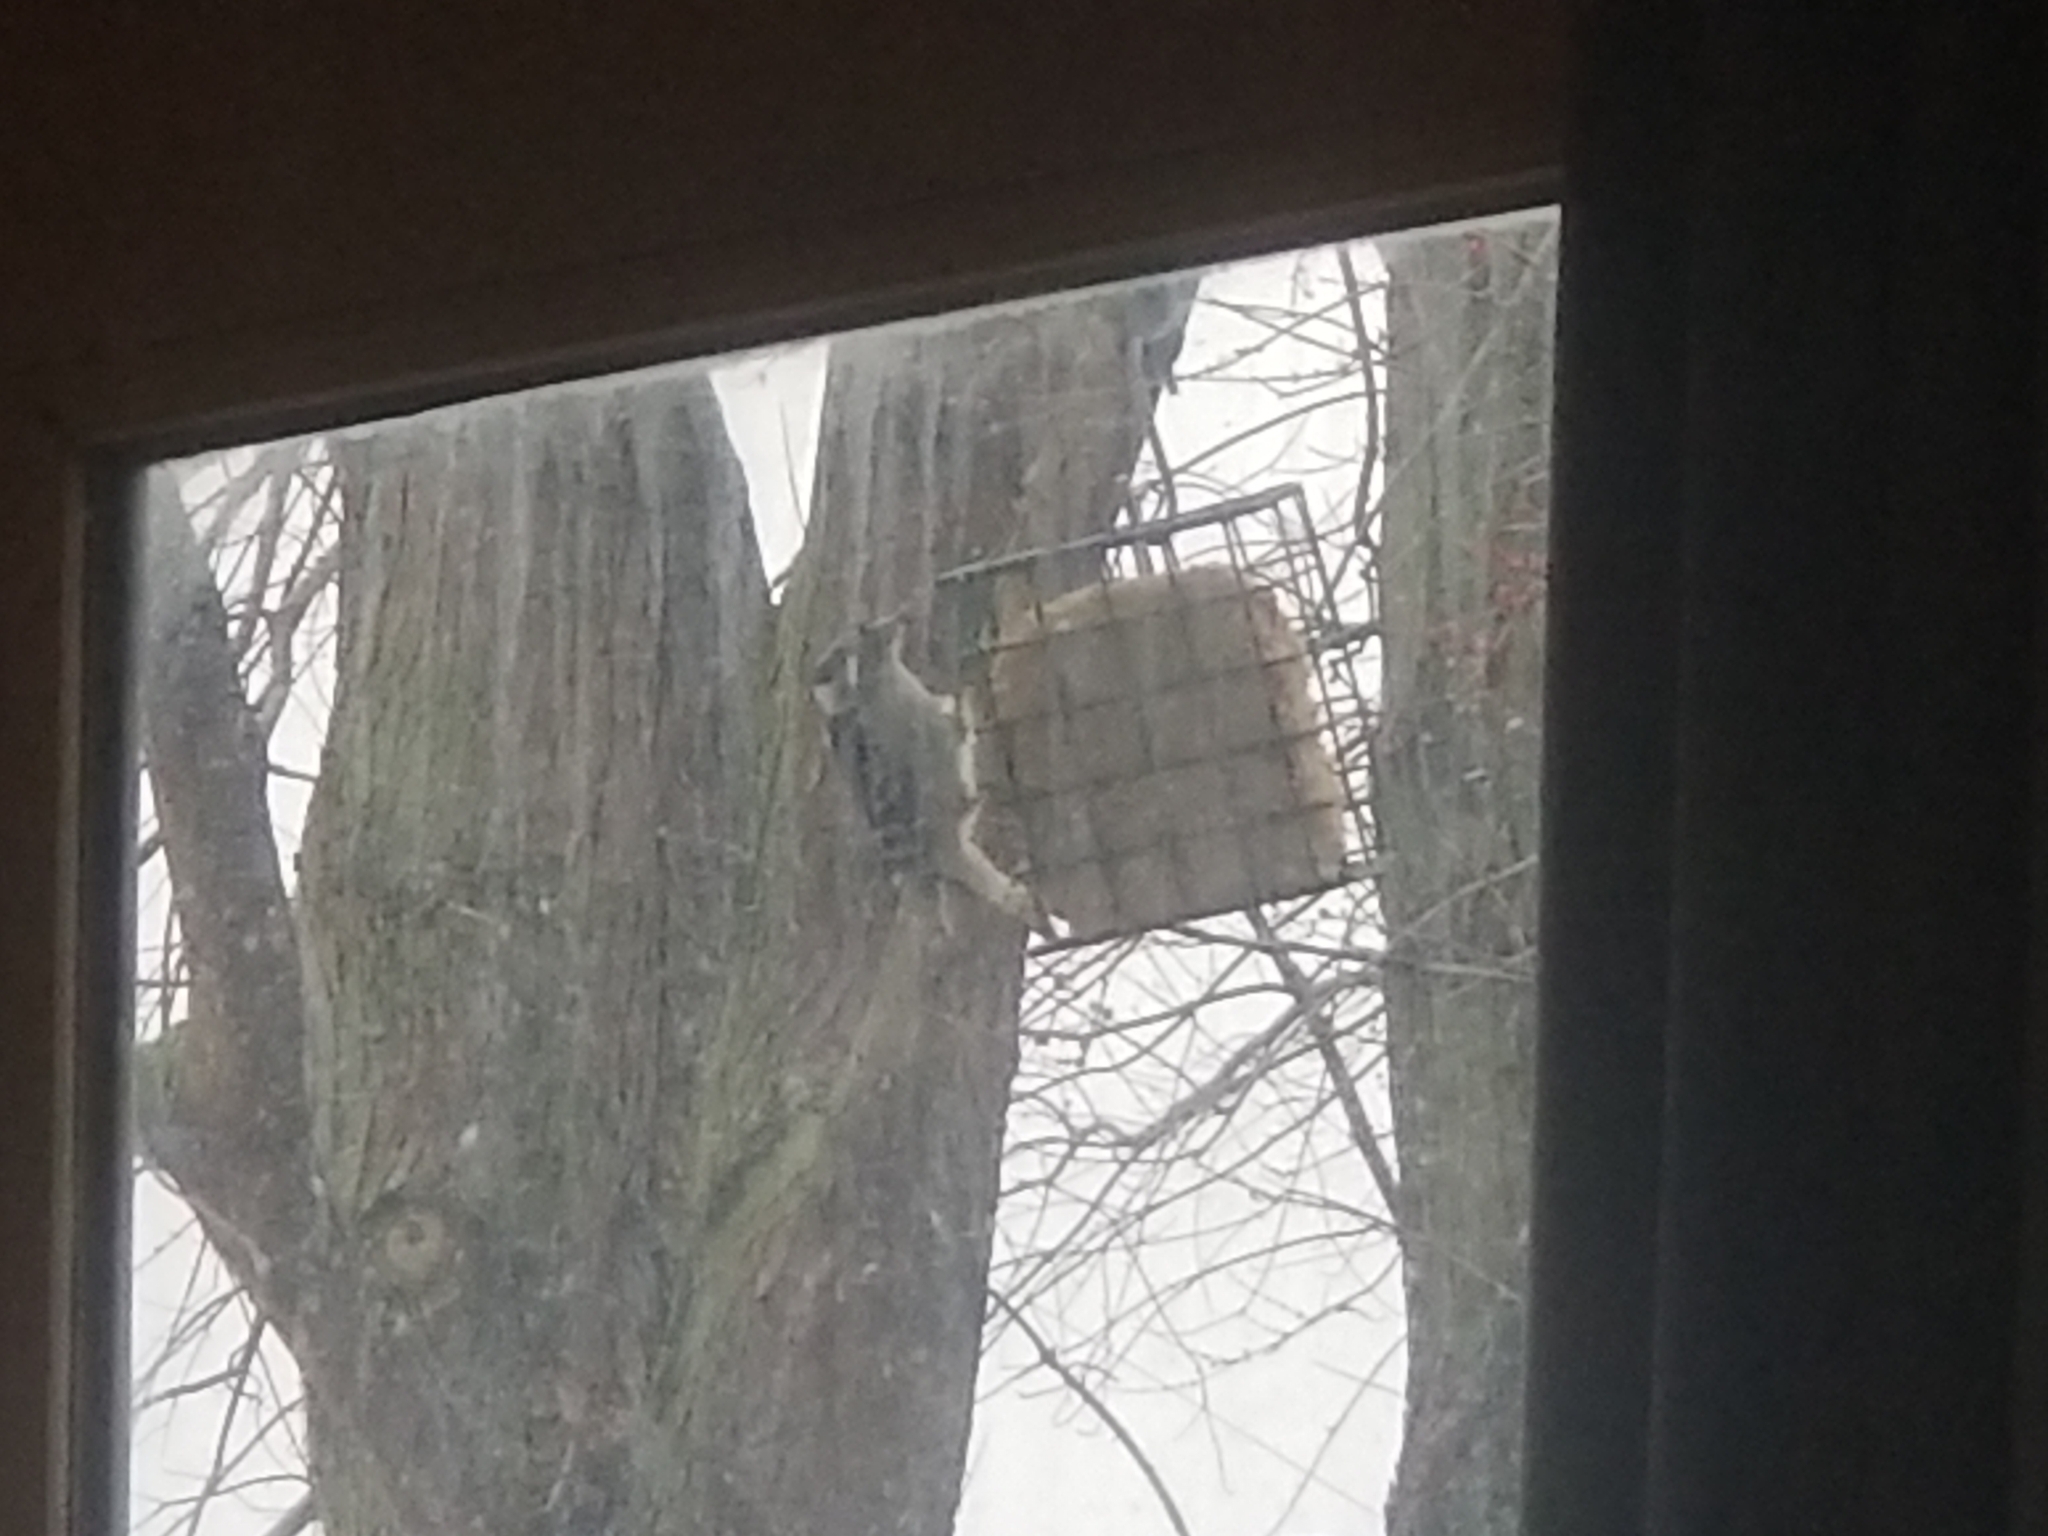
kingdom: Animalia
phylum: Chordata
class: Aves
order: Piciformes
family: Picidae
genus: Dryobates
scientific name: Dryobates pubescens
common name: Downy woodpecker
